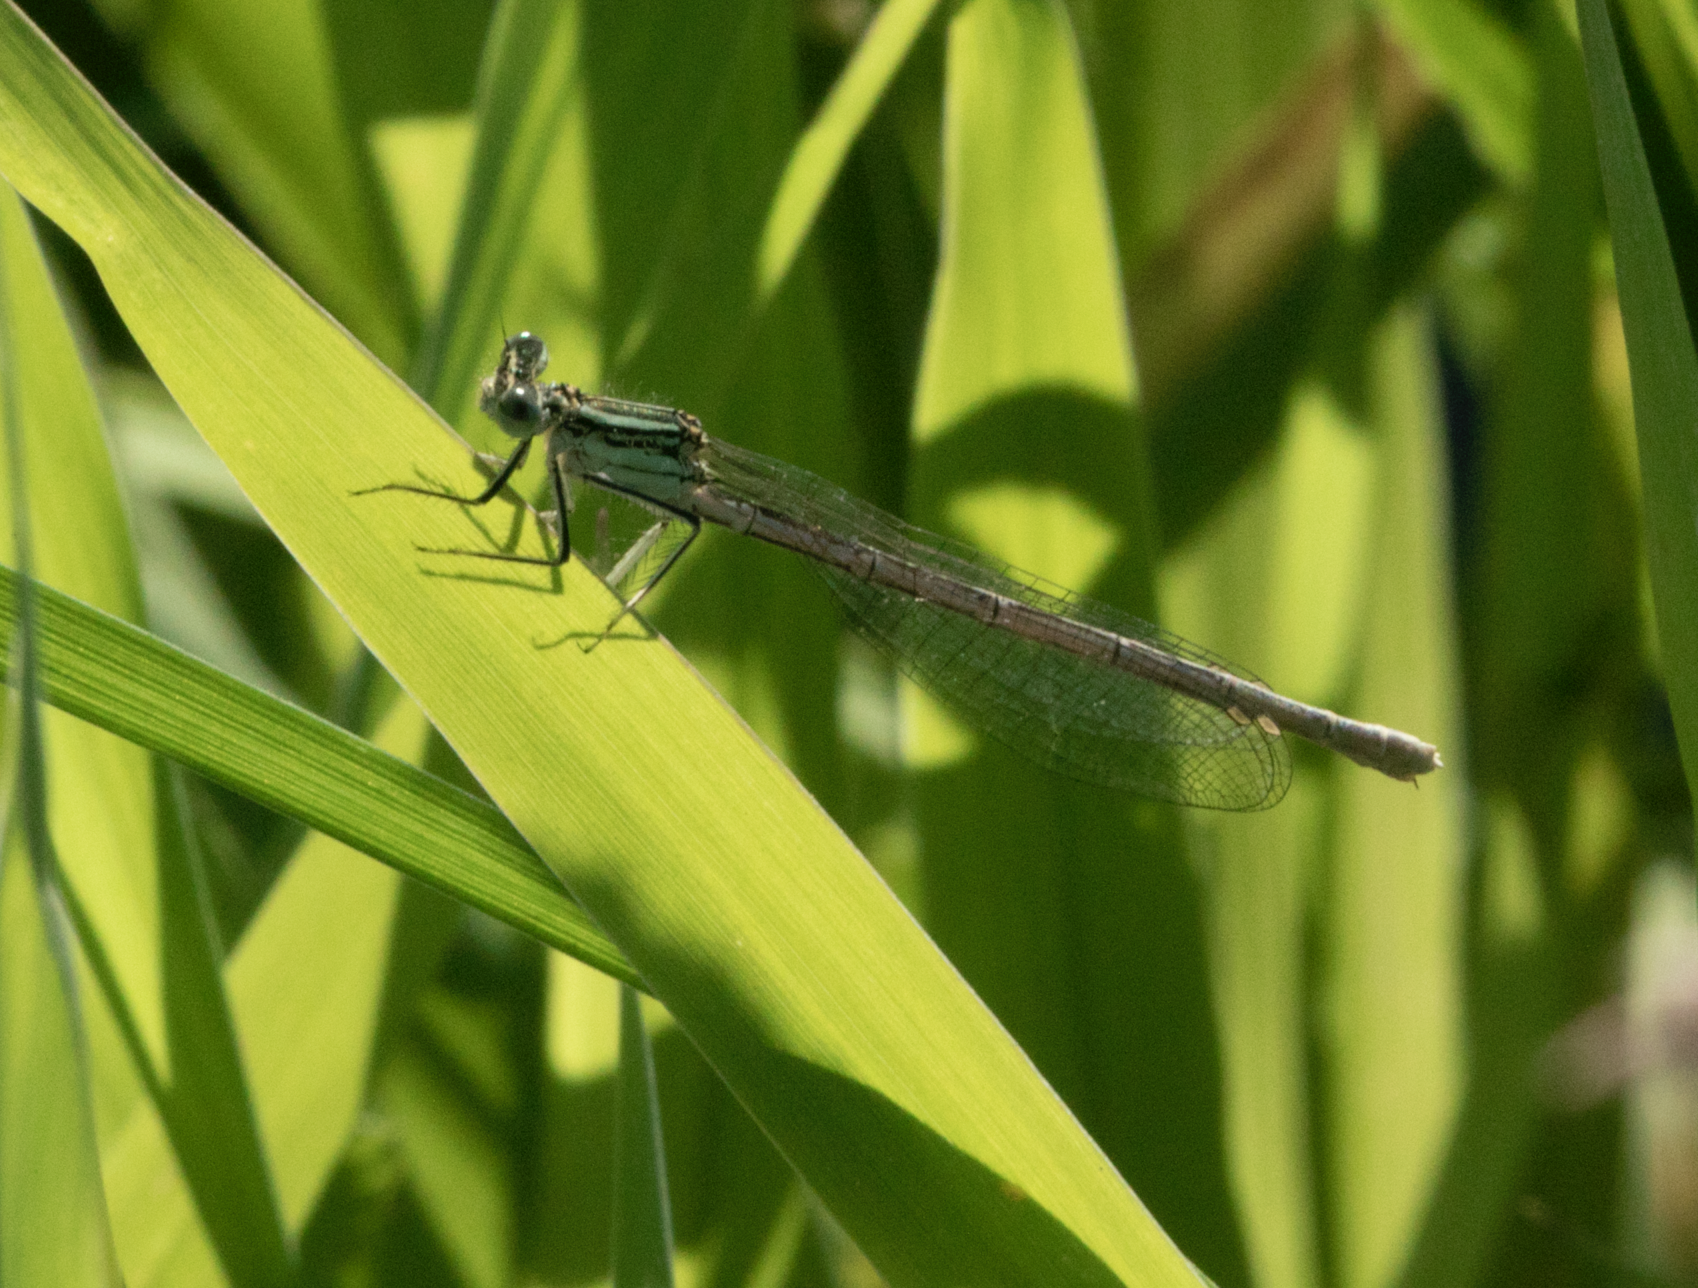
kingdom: Animalia
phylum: Arthropoda
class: Insecta
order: Odonata
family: Platycnemididae
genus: Platycnemis
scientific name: Platycnemis pennipes
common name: White-legged damselfly
